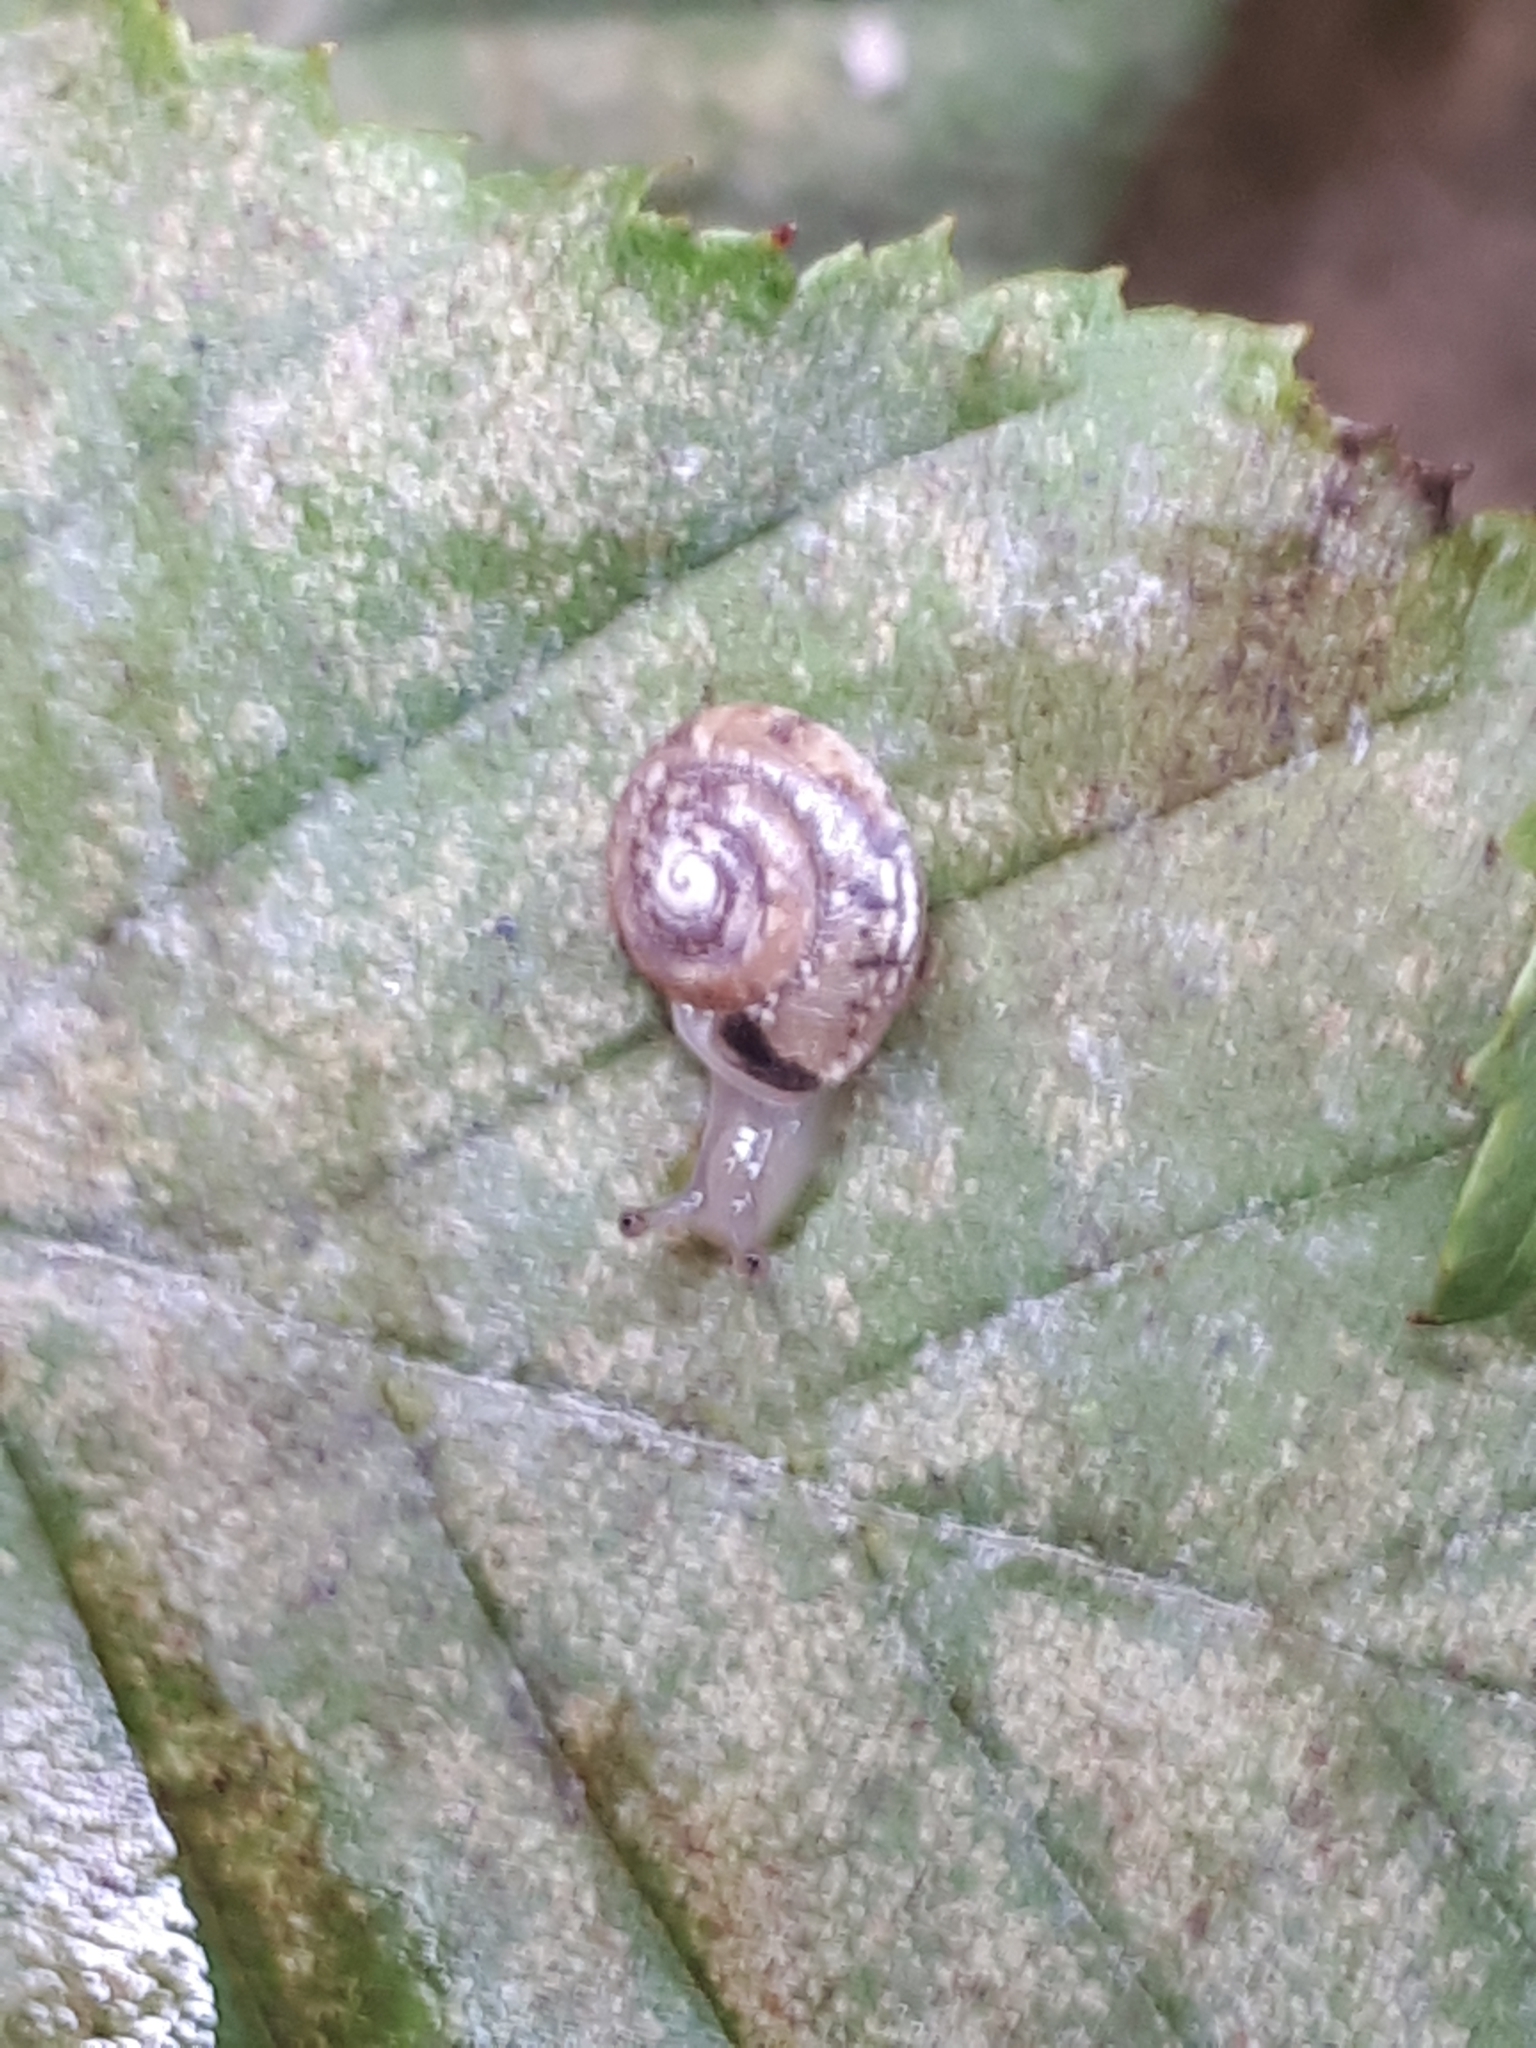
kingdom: Animalia
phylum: Mollusca
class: Gastropoda
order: Stylommatophora
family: Hygromiidae
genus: Hygromia
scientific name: Hygromia cinctella
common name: Girdled snail
